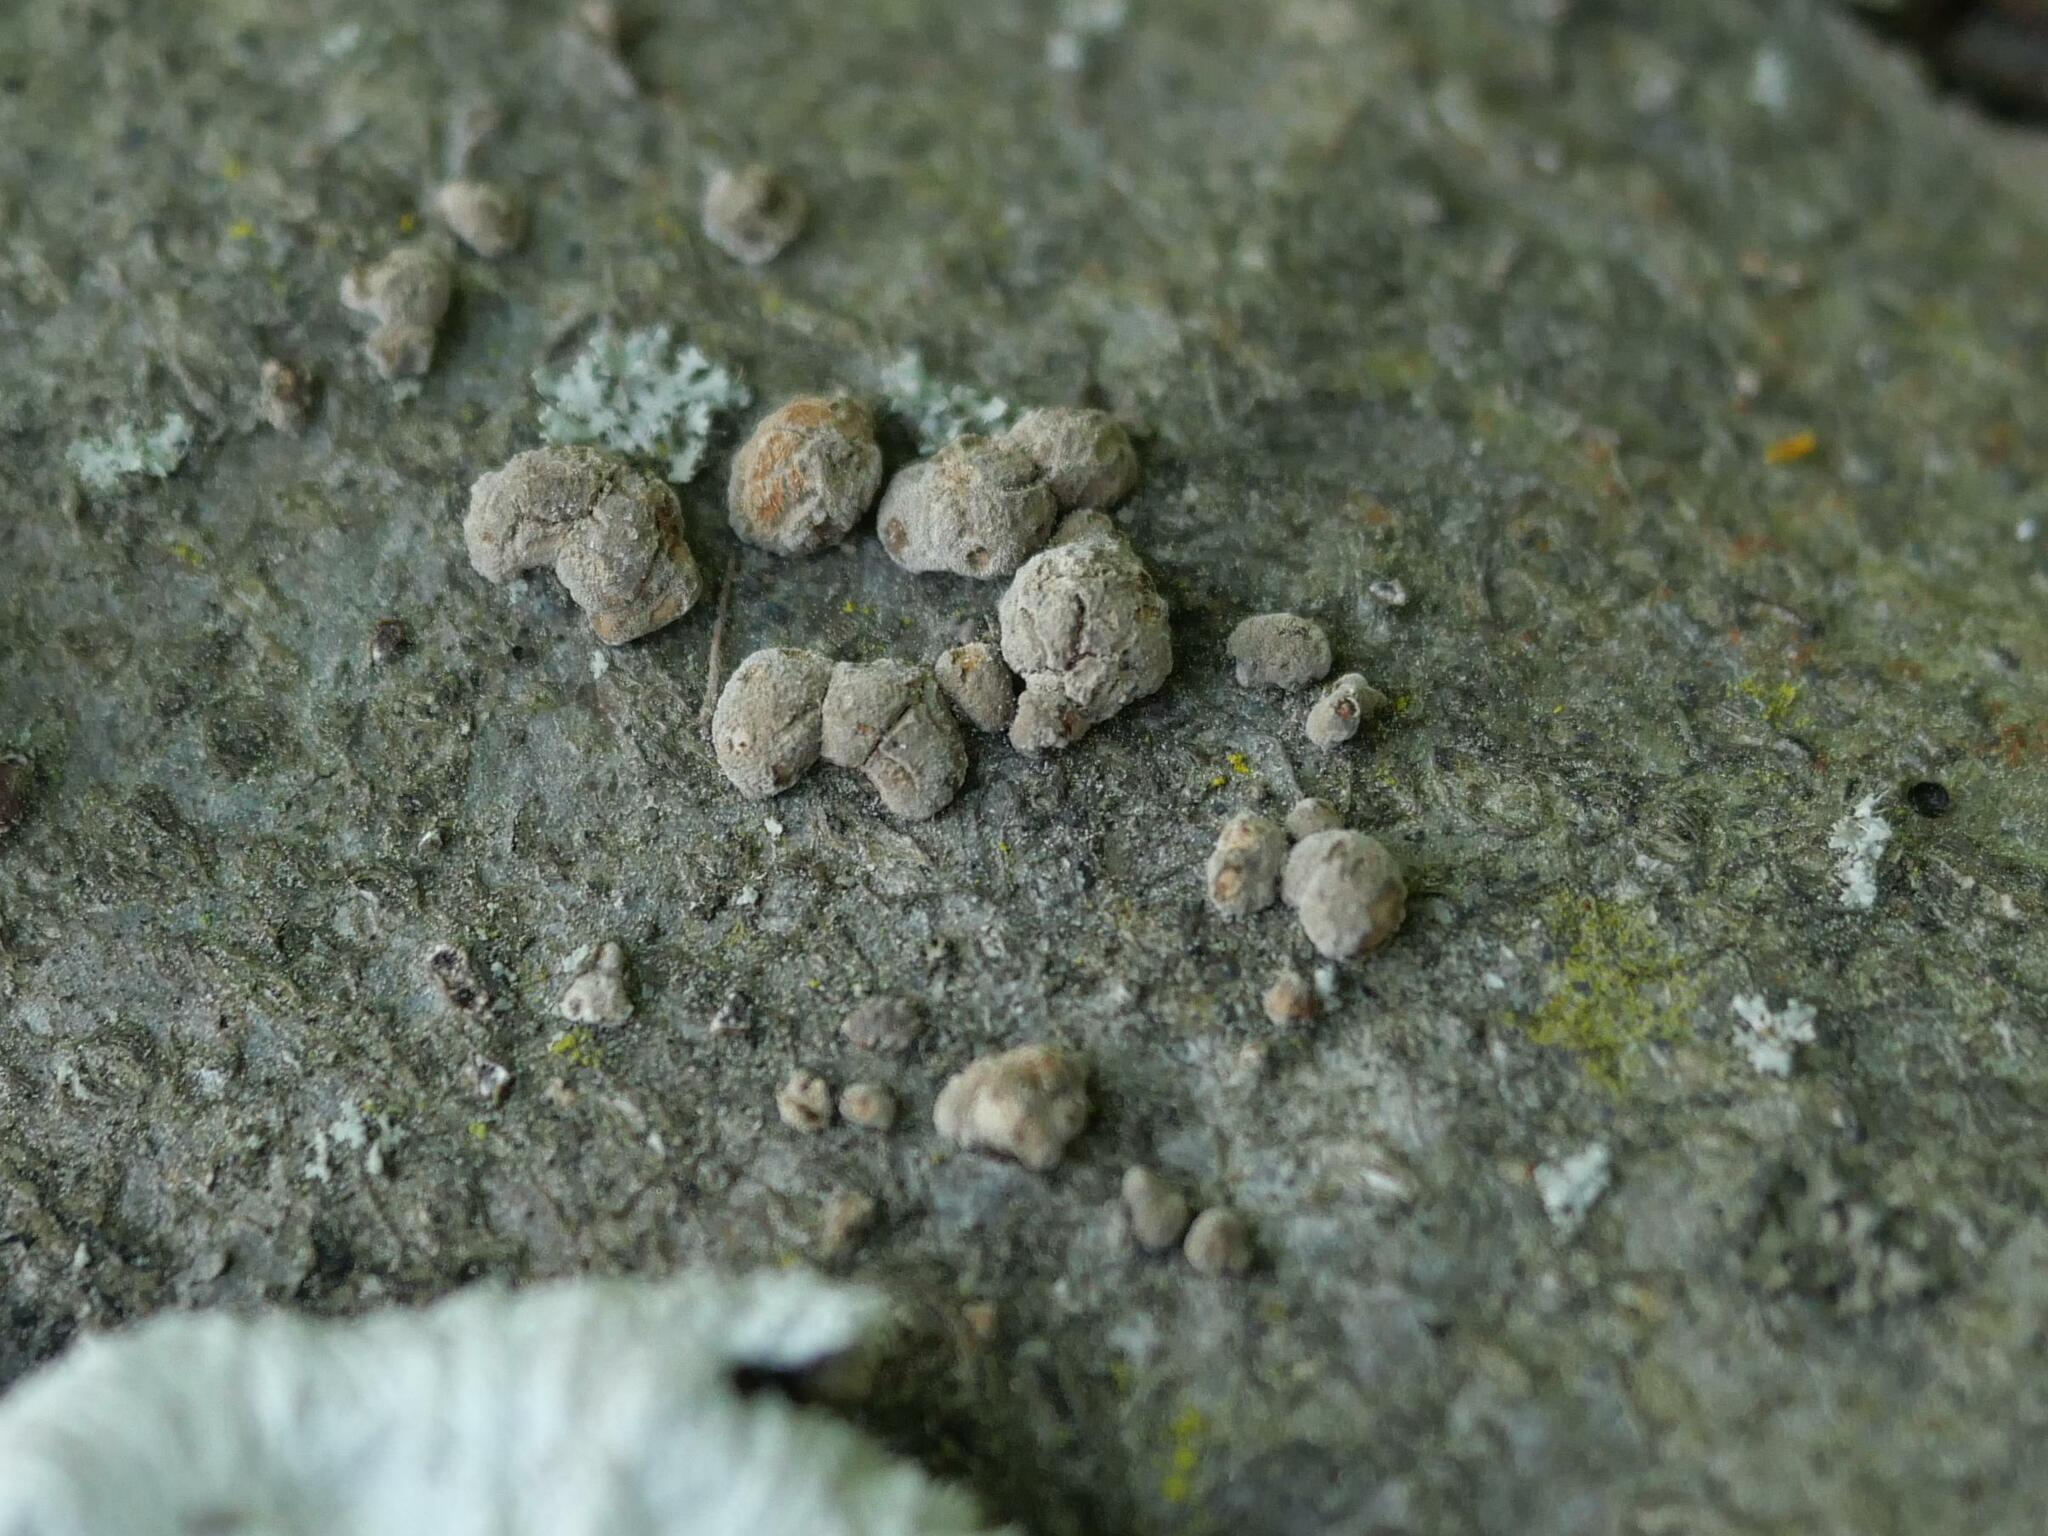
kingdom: Fungi
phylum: Ascomycota
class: Sordariomycetes
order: Xylariales
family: Hypoxylaceae
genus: Hypoxylon
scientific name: Hypoxylon fragiforme
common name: Beech woodwart
